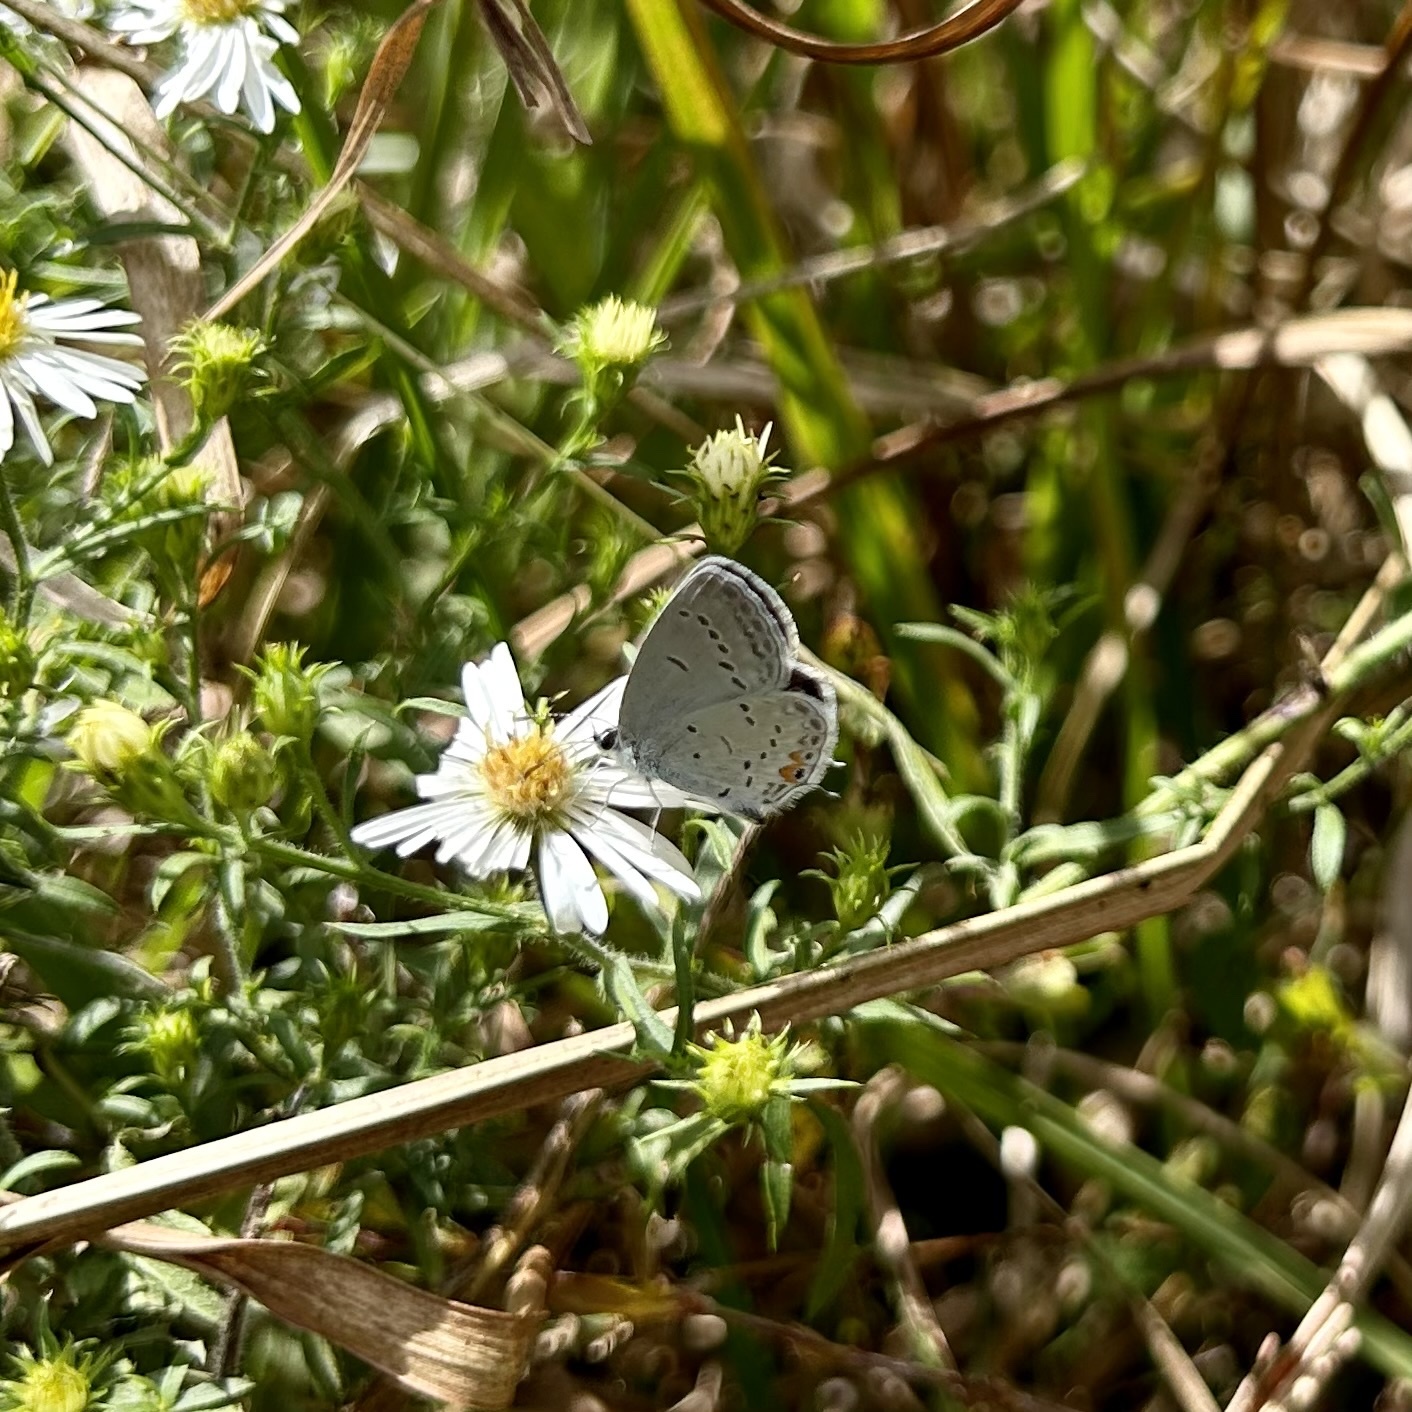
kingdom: Animalia
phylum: Arthropoda
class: Insecta
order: Lepidoptera
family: Lycaenidae
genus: Elkalyce
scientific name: Elkalyce comyntas
